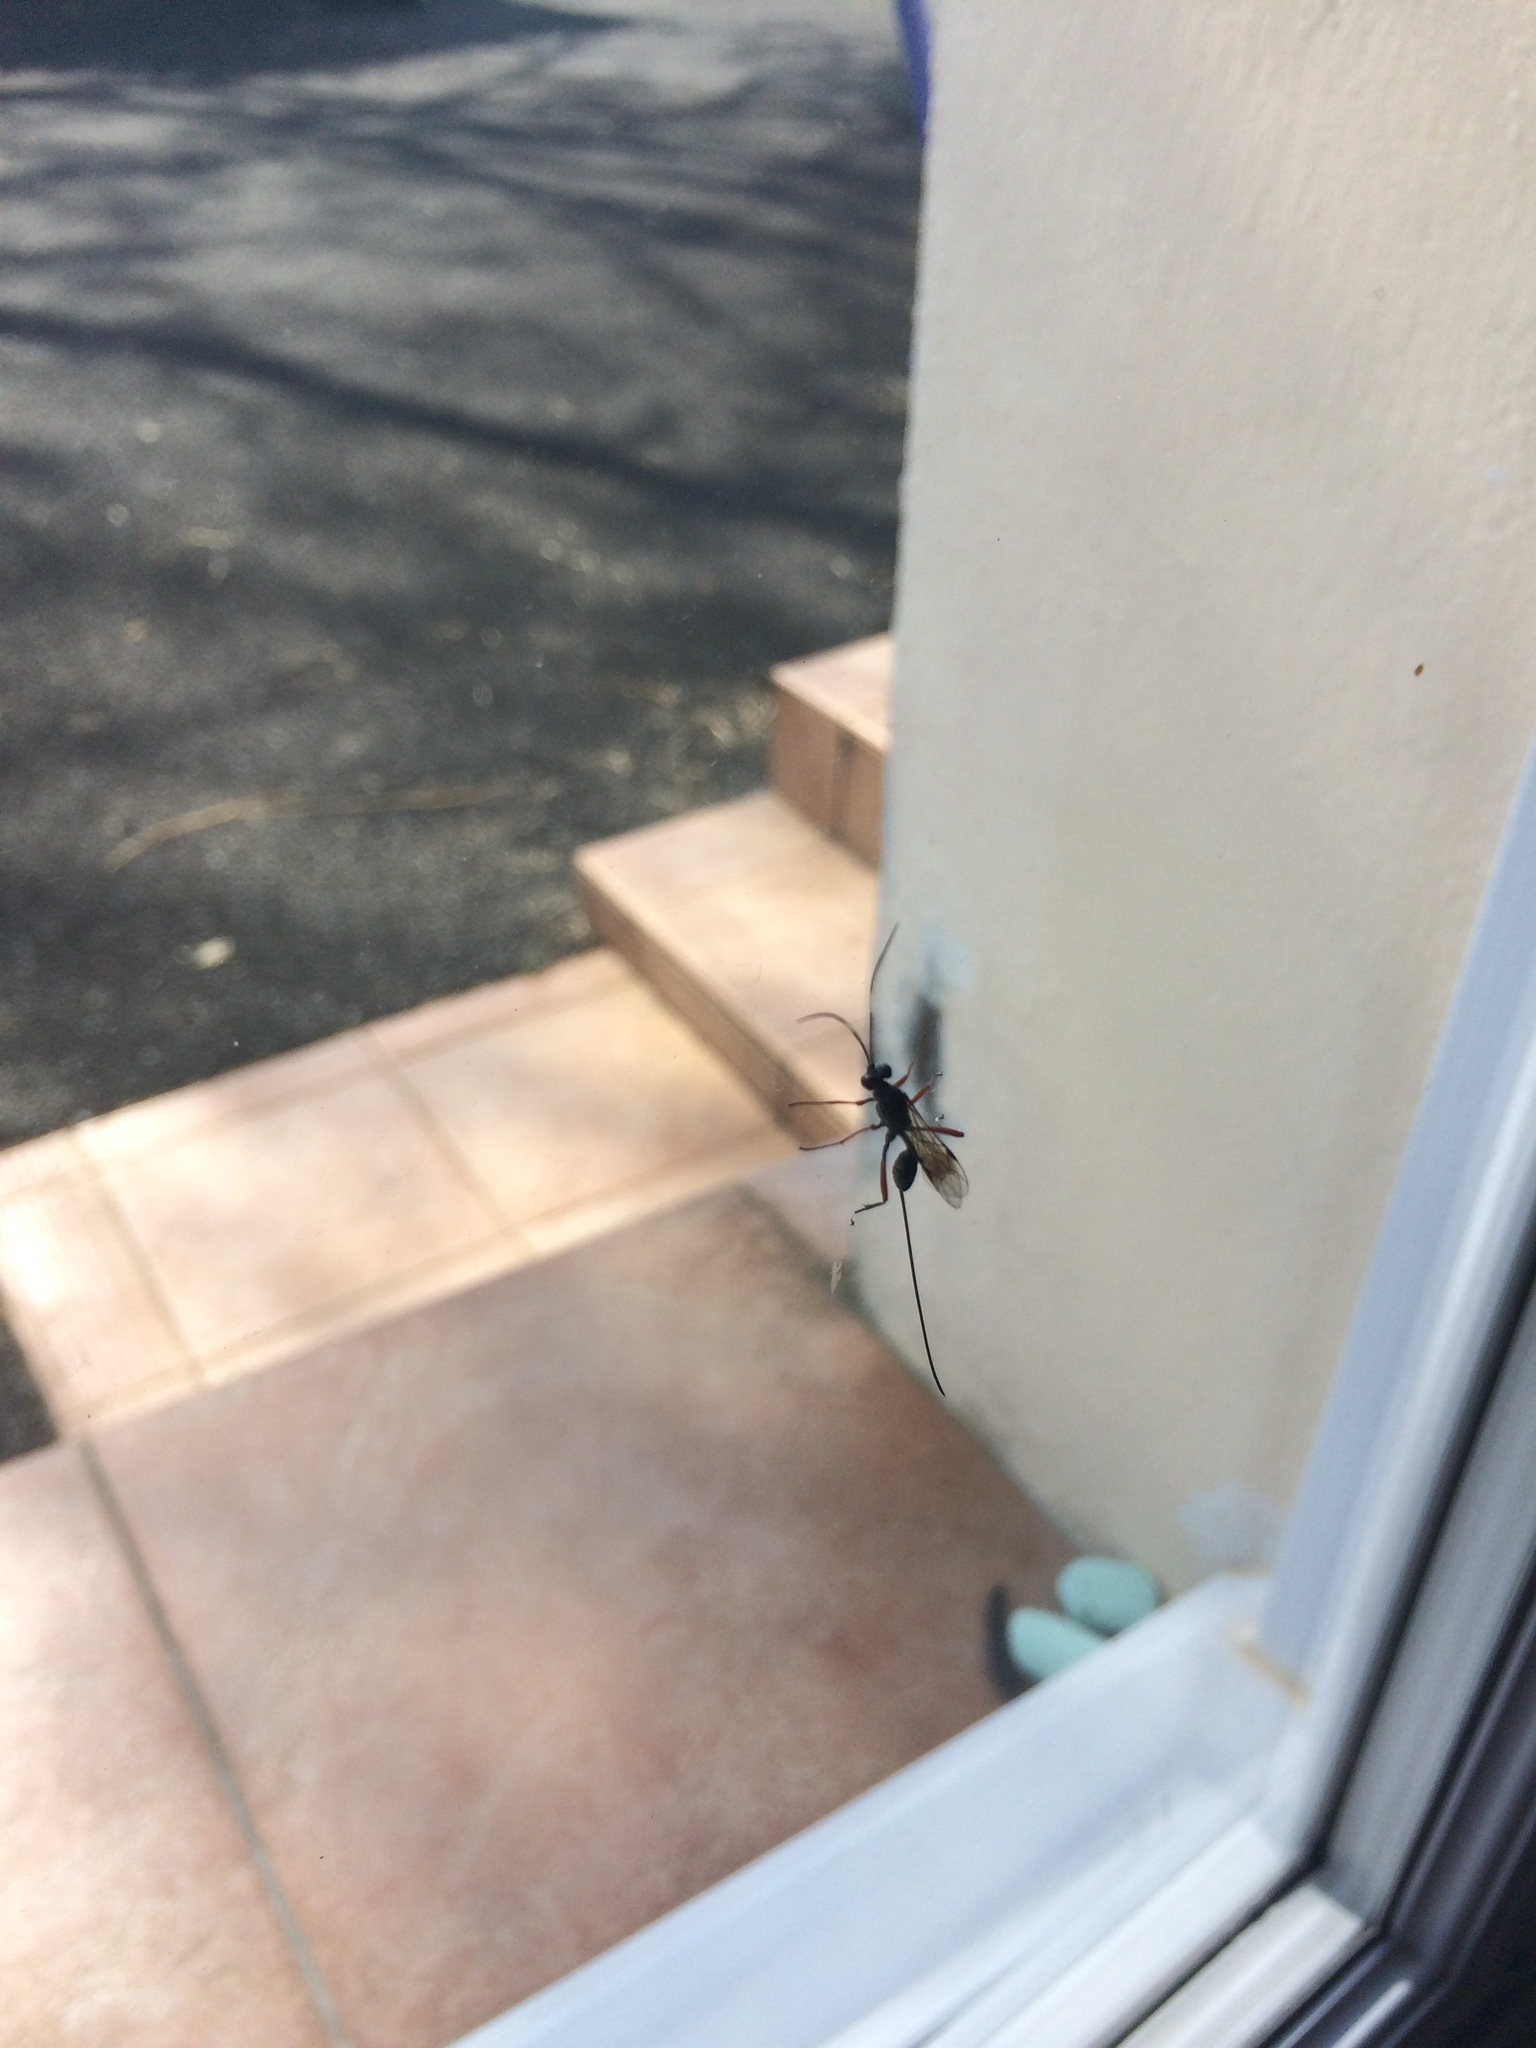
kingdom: Animalia
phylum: Arthropoda
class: Insecta
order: Hymenoptera
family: Ichneumonidae
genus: Stenarella
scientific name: Stenarella domator
